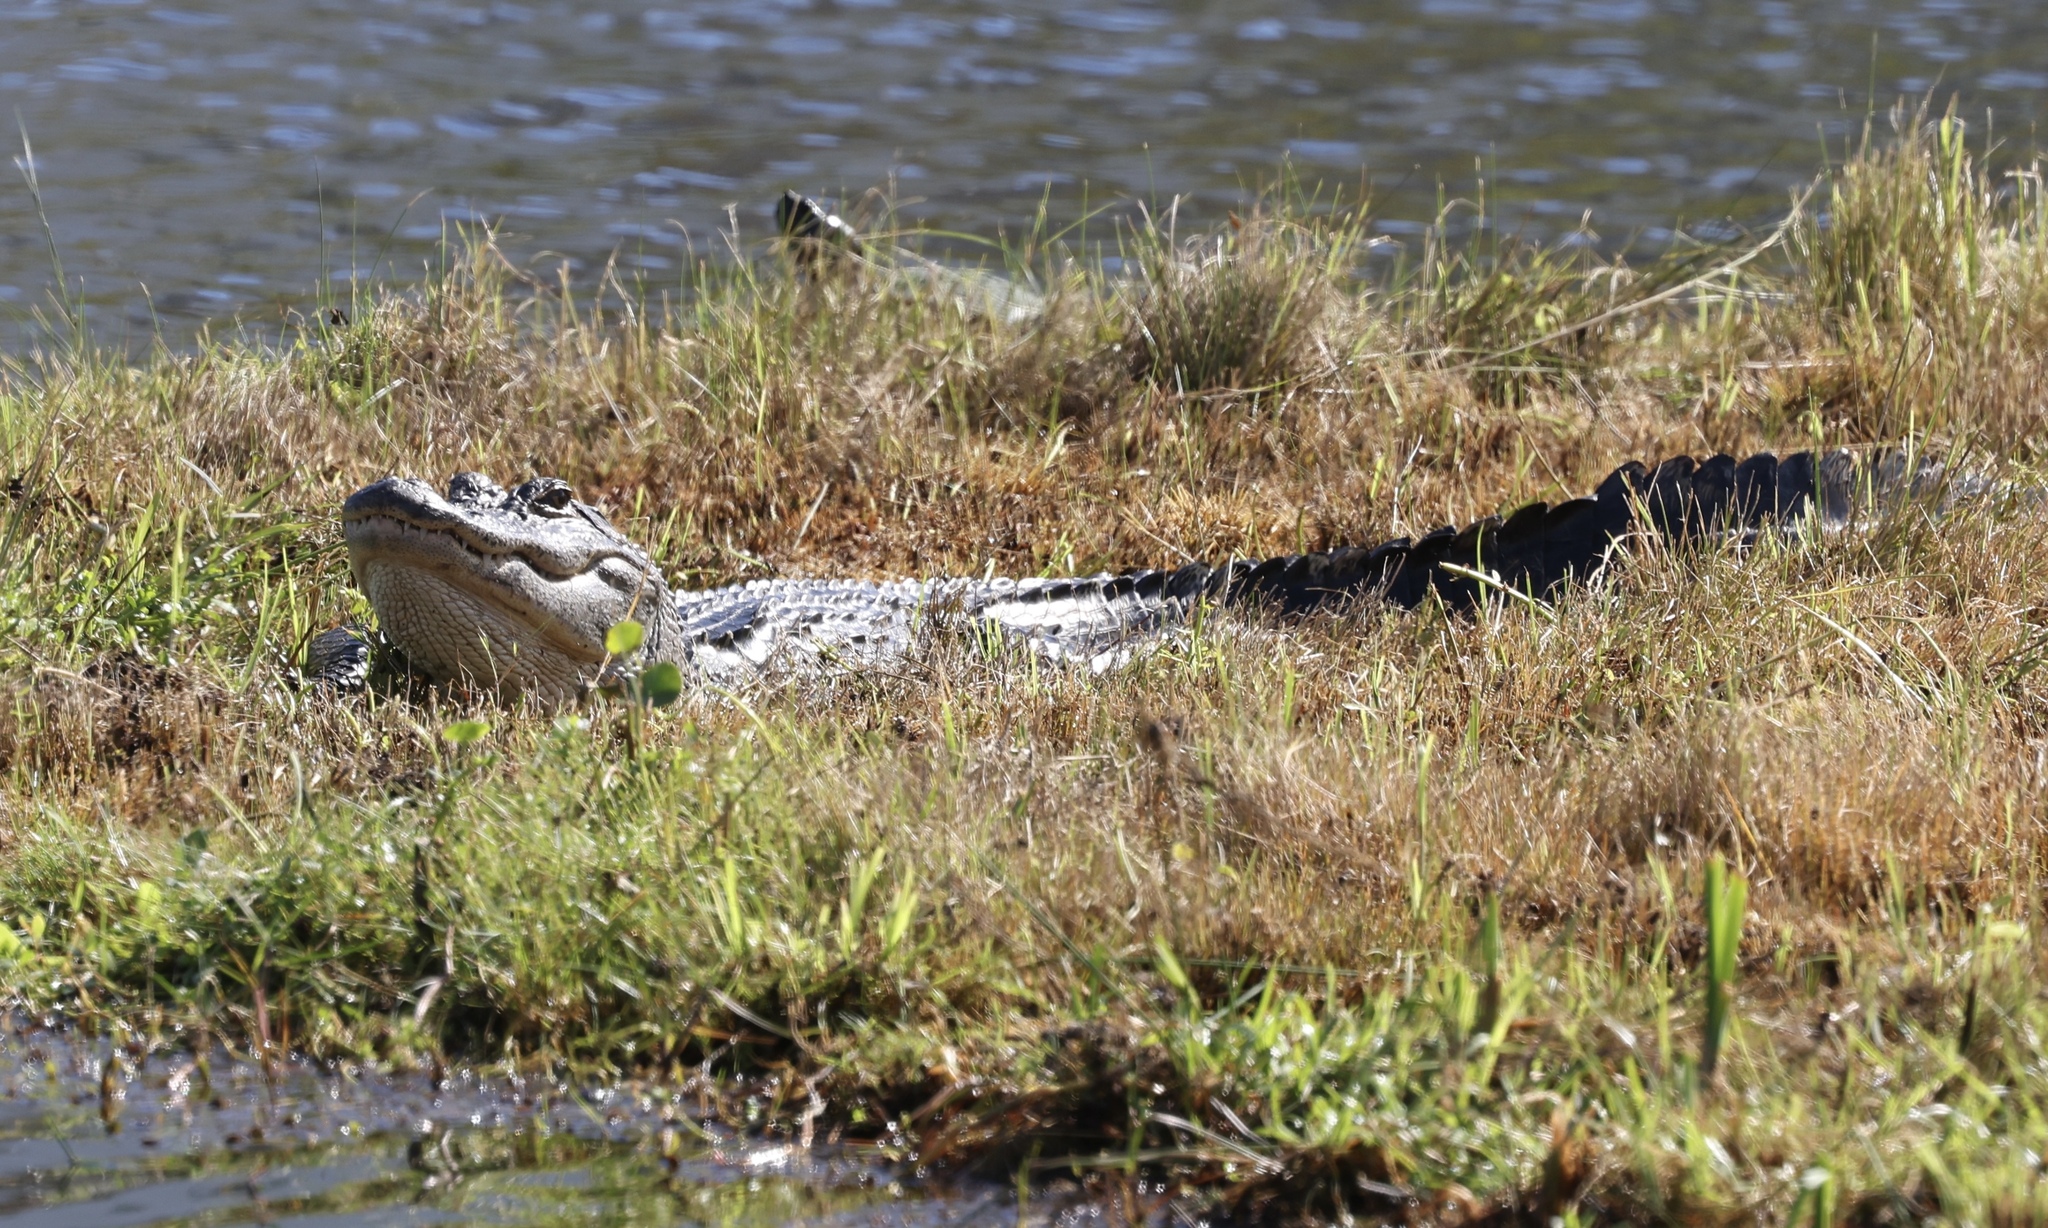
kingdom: Animalia
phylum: Chordata
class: Crocodylia
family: Alligatoridae
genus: Alligator
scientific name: Alligator mississippiensis
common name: American alligator
